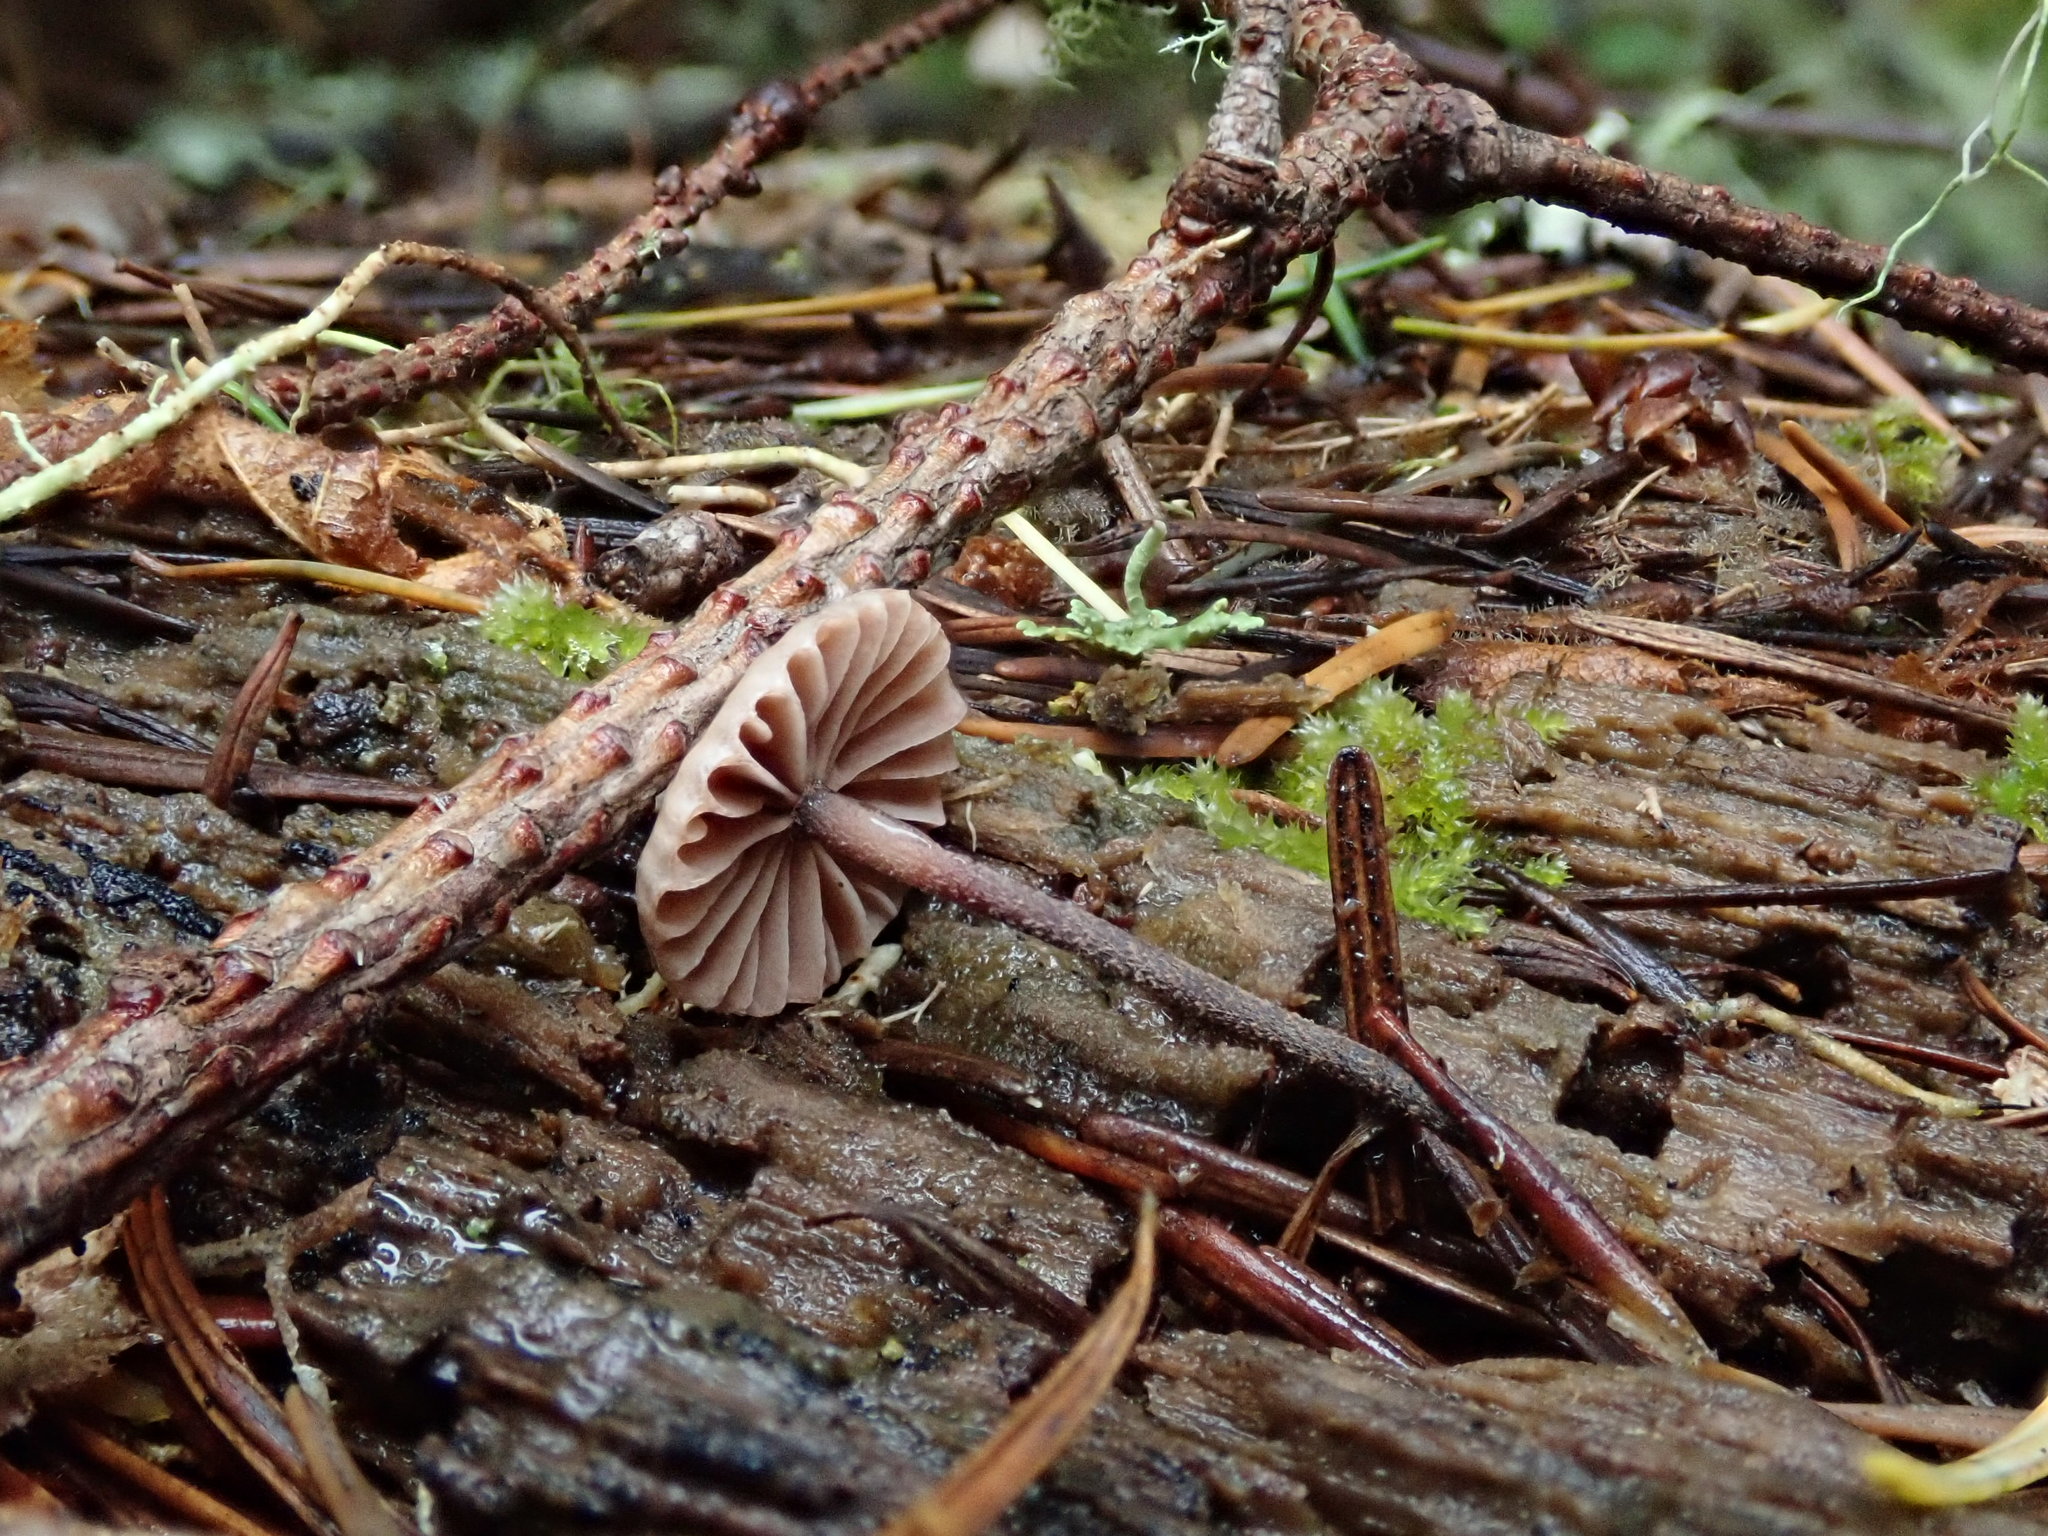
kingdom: Fungi
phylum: Basidiomycota
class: Agaricomycetes
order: Agaricales
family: Omphalotaceae
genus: Paragymnopus
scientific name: Paragymnopus sequoiae
